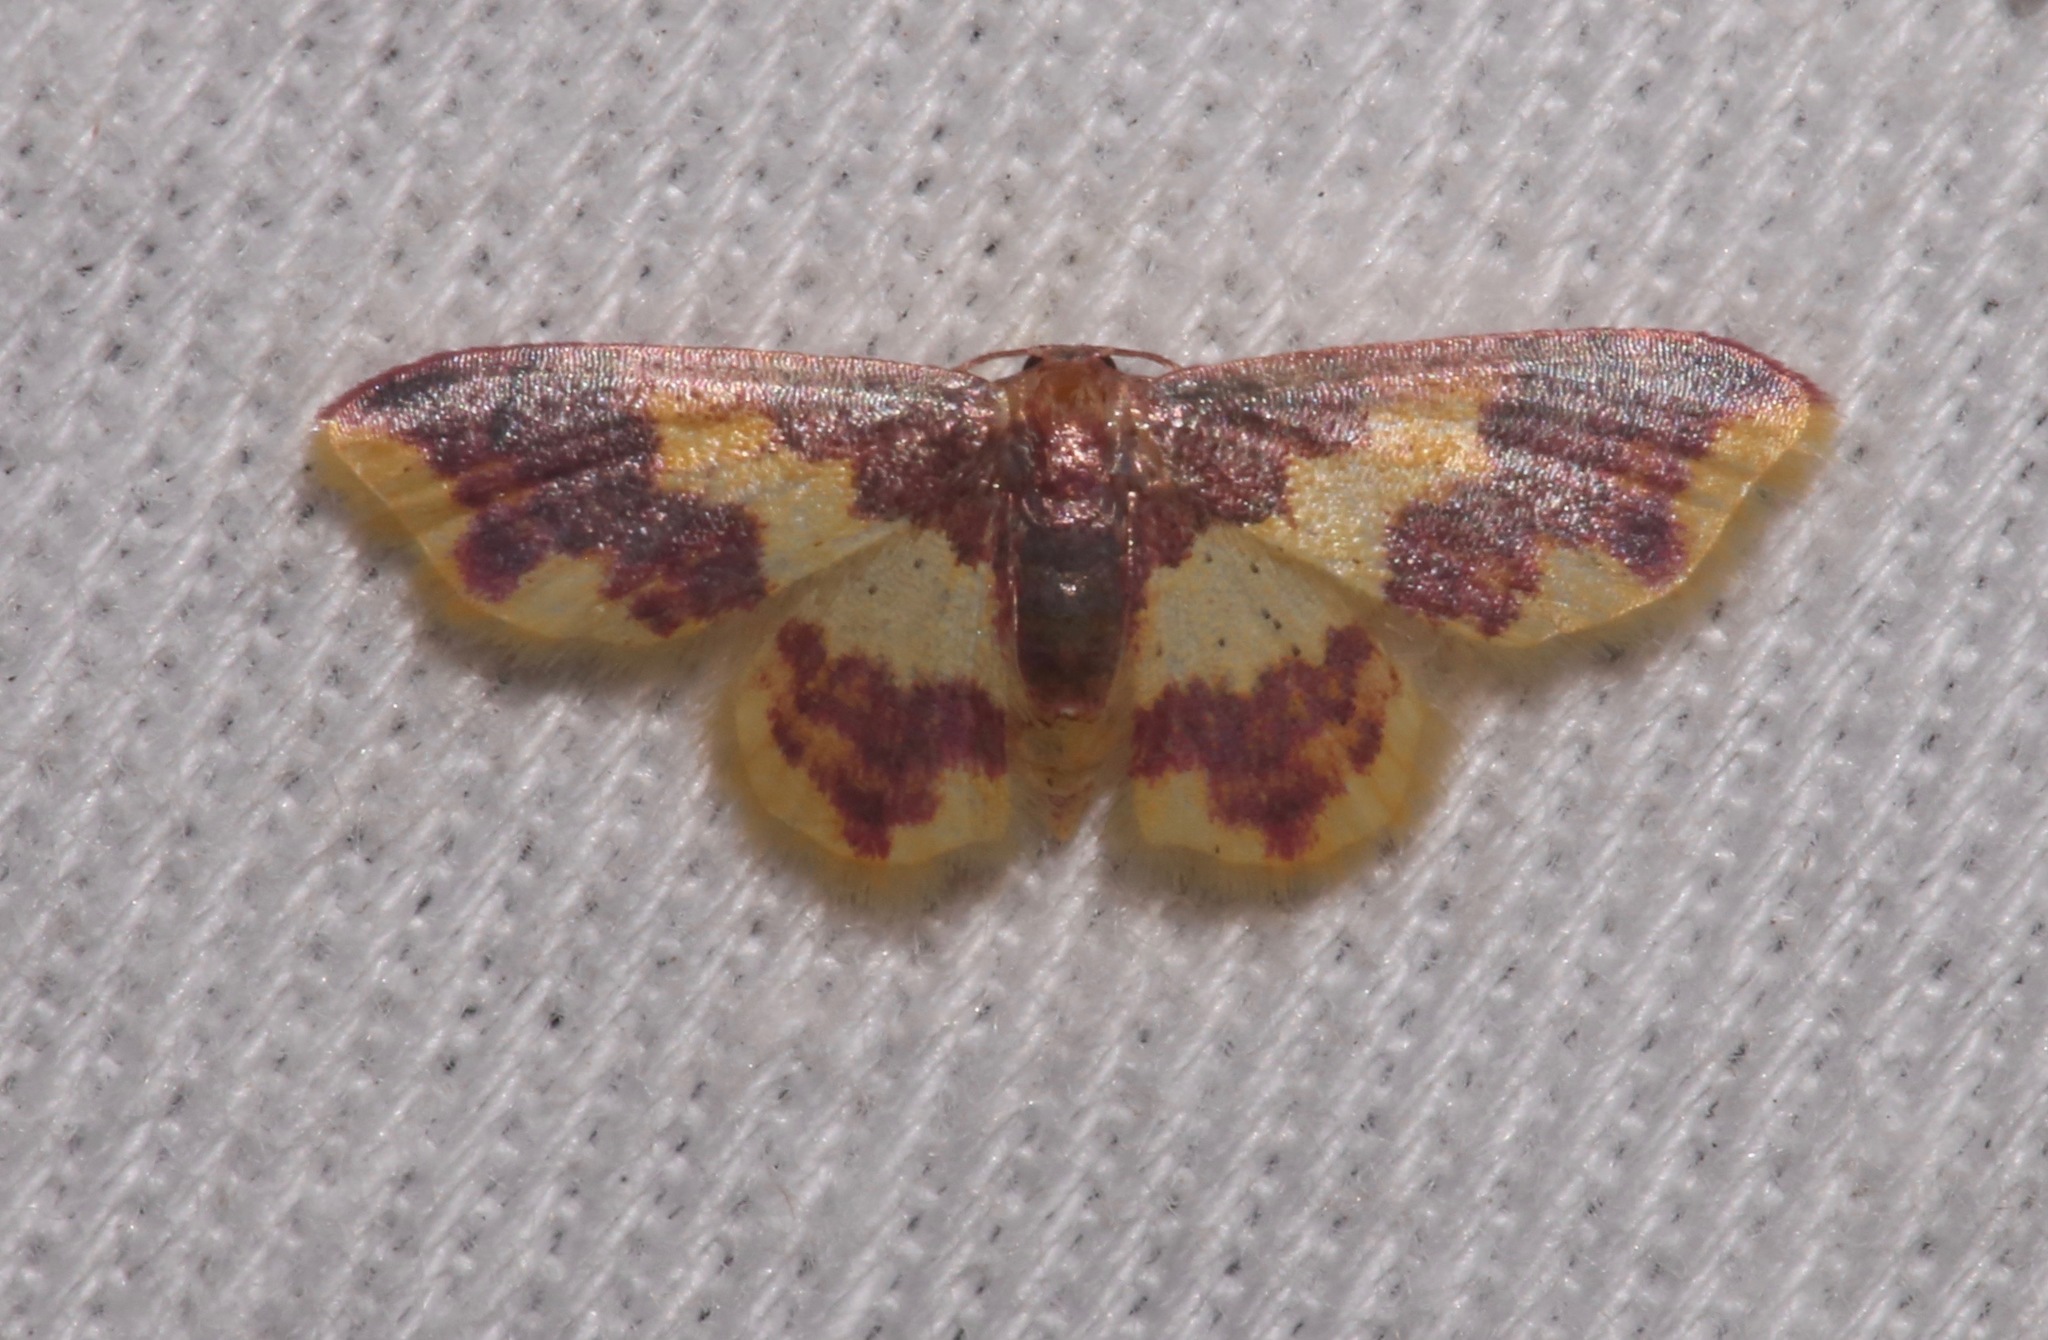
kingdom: Animalia
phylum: Arthropoda
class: Insecta
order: Lepidoptera
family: Geometridae
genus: Lophosis
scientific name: Lophosis labeculata
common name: Stained lophosis moth
